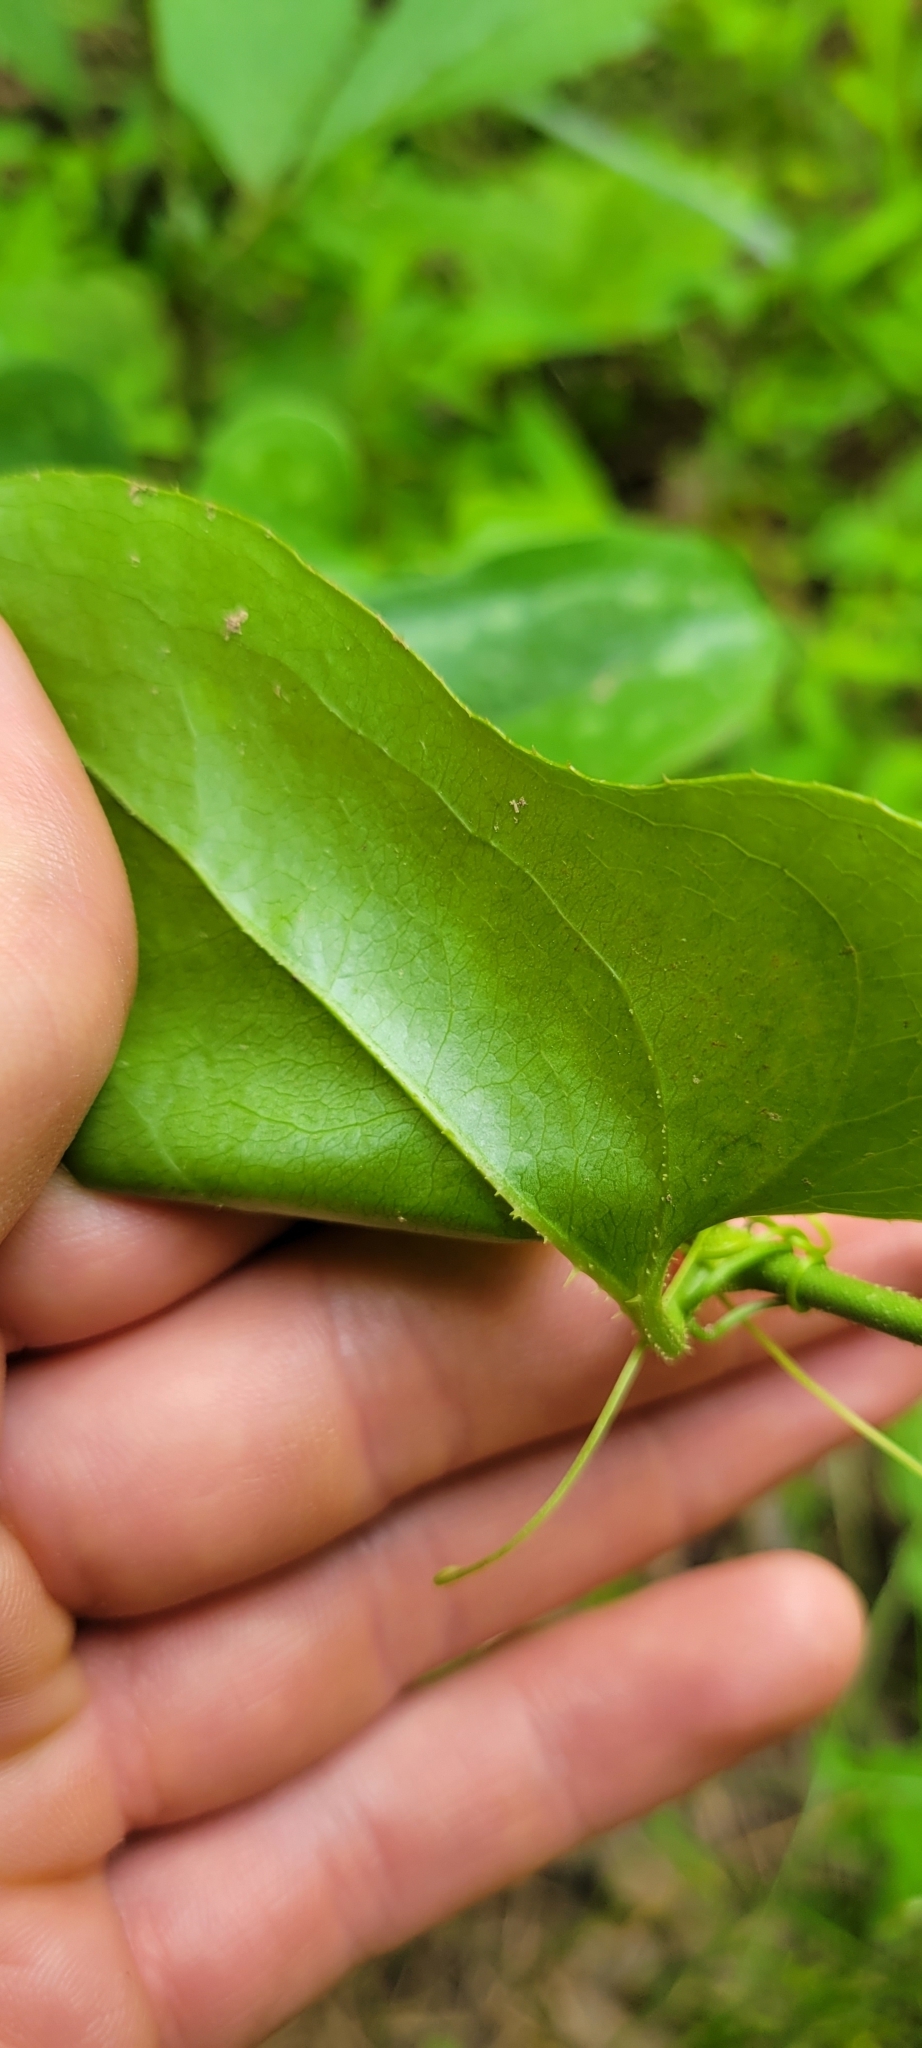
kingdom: Plantae
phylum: Tracheophyta
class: Liliopsida
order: Liliales
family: Smilacaceae
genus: Smilax
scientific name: Smilax bona-nox
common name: Catbrier
